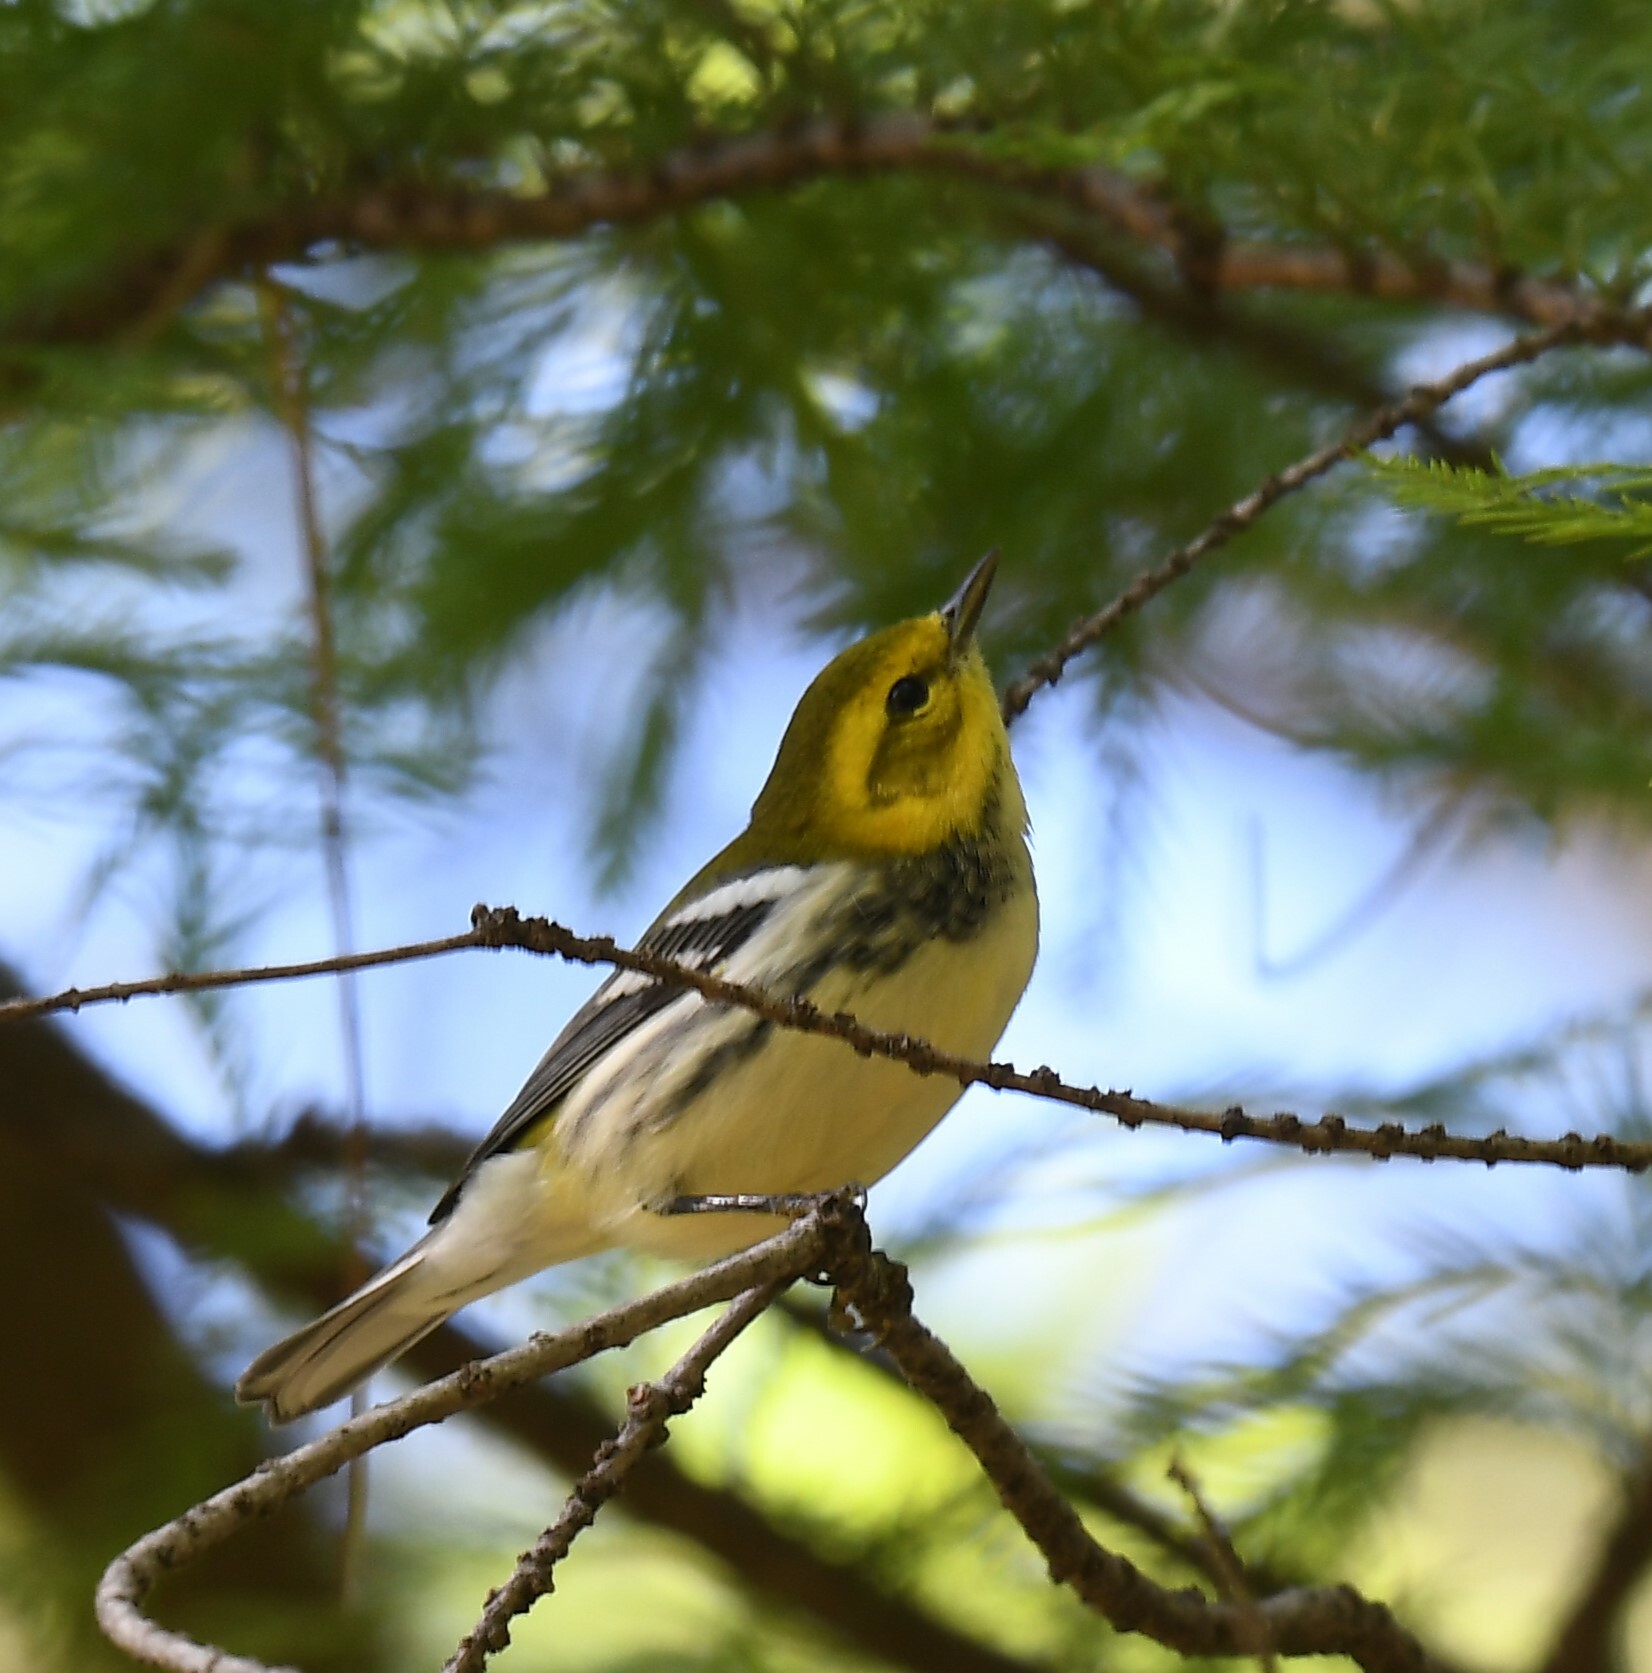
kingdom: Animalia
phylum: Chordata
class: Aves
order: Passeriformes
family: Parulidae
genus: Setophaga
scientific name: Setophaga virens
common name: Black-throated green warbler
